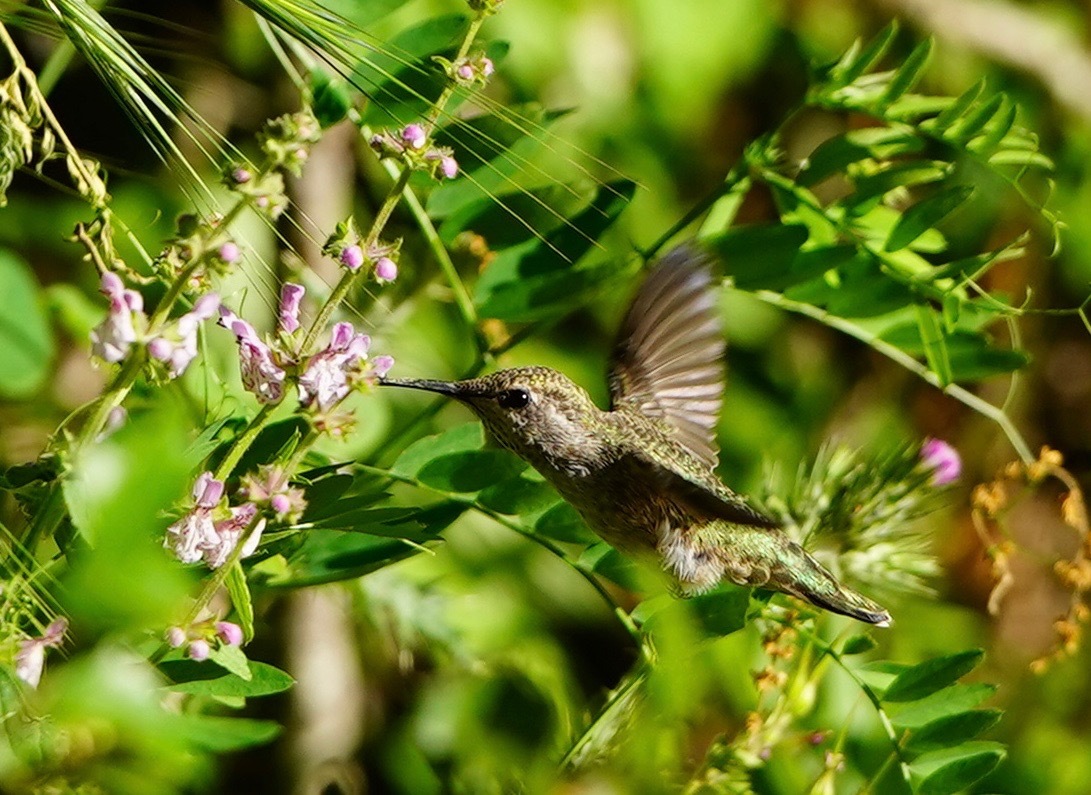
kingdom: Animalia
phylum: Chordata
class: Aves
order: Apodiformes
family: Trochilidae
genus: Calypte
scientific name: Calypte anna
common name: Anna's hummingbird
